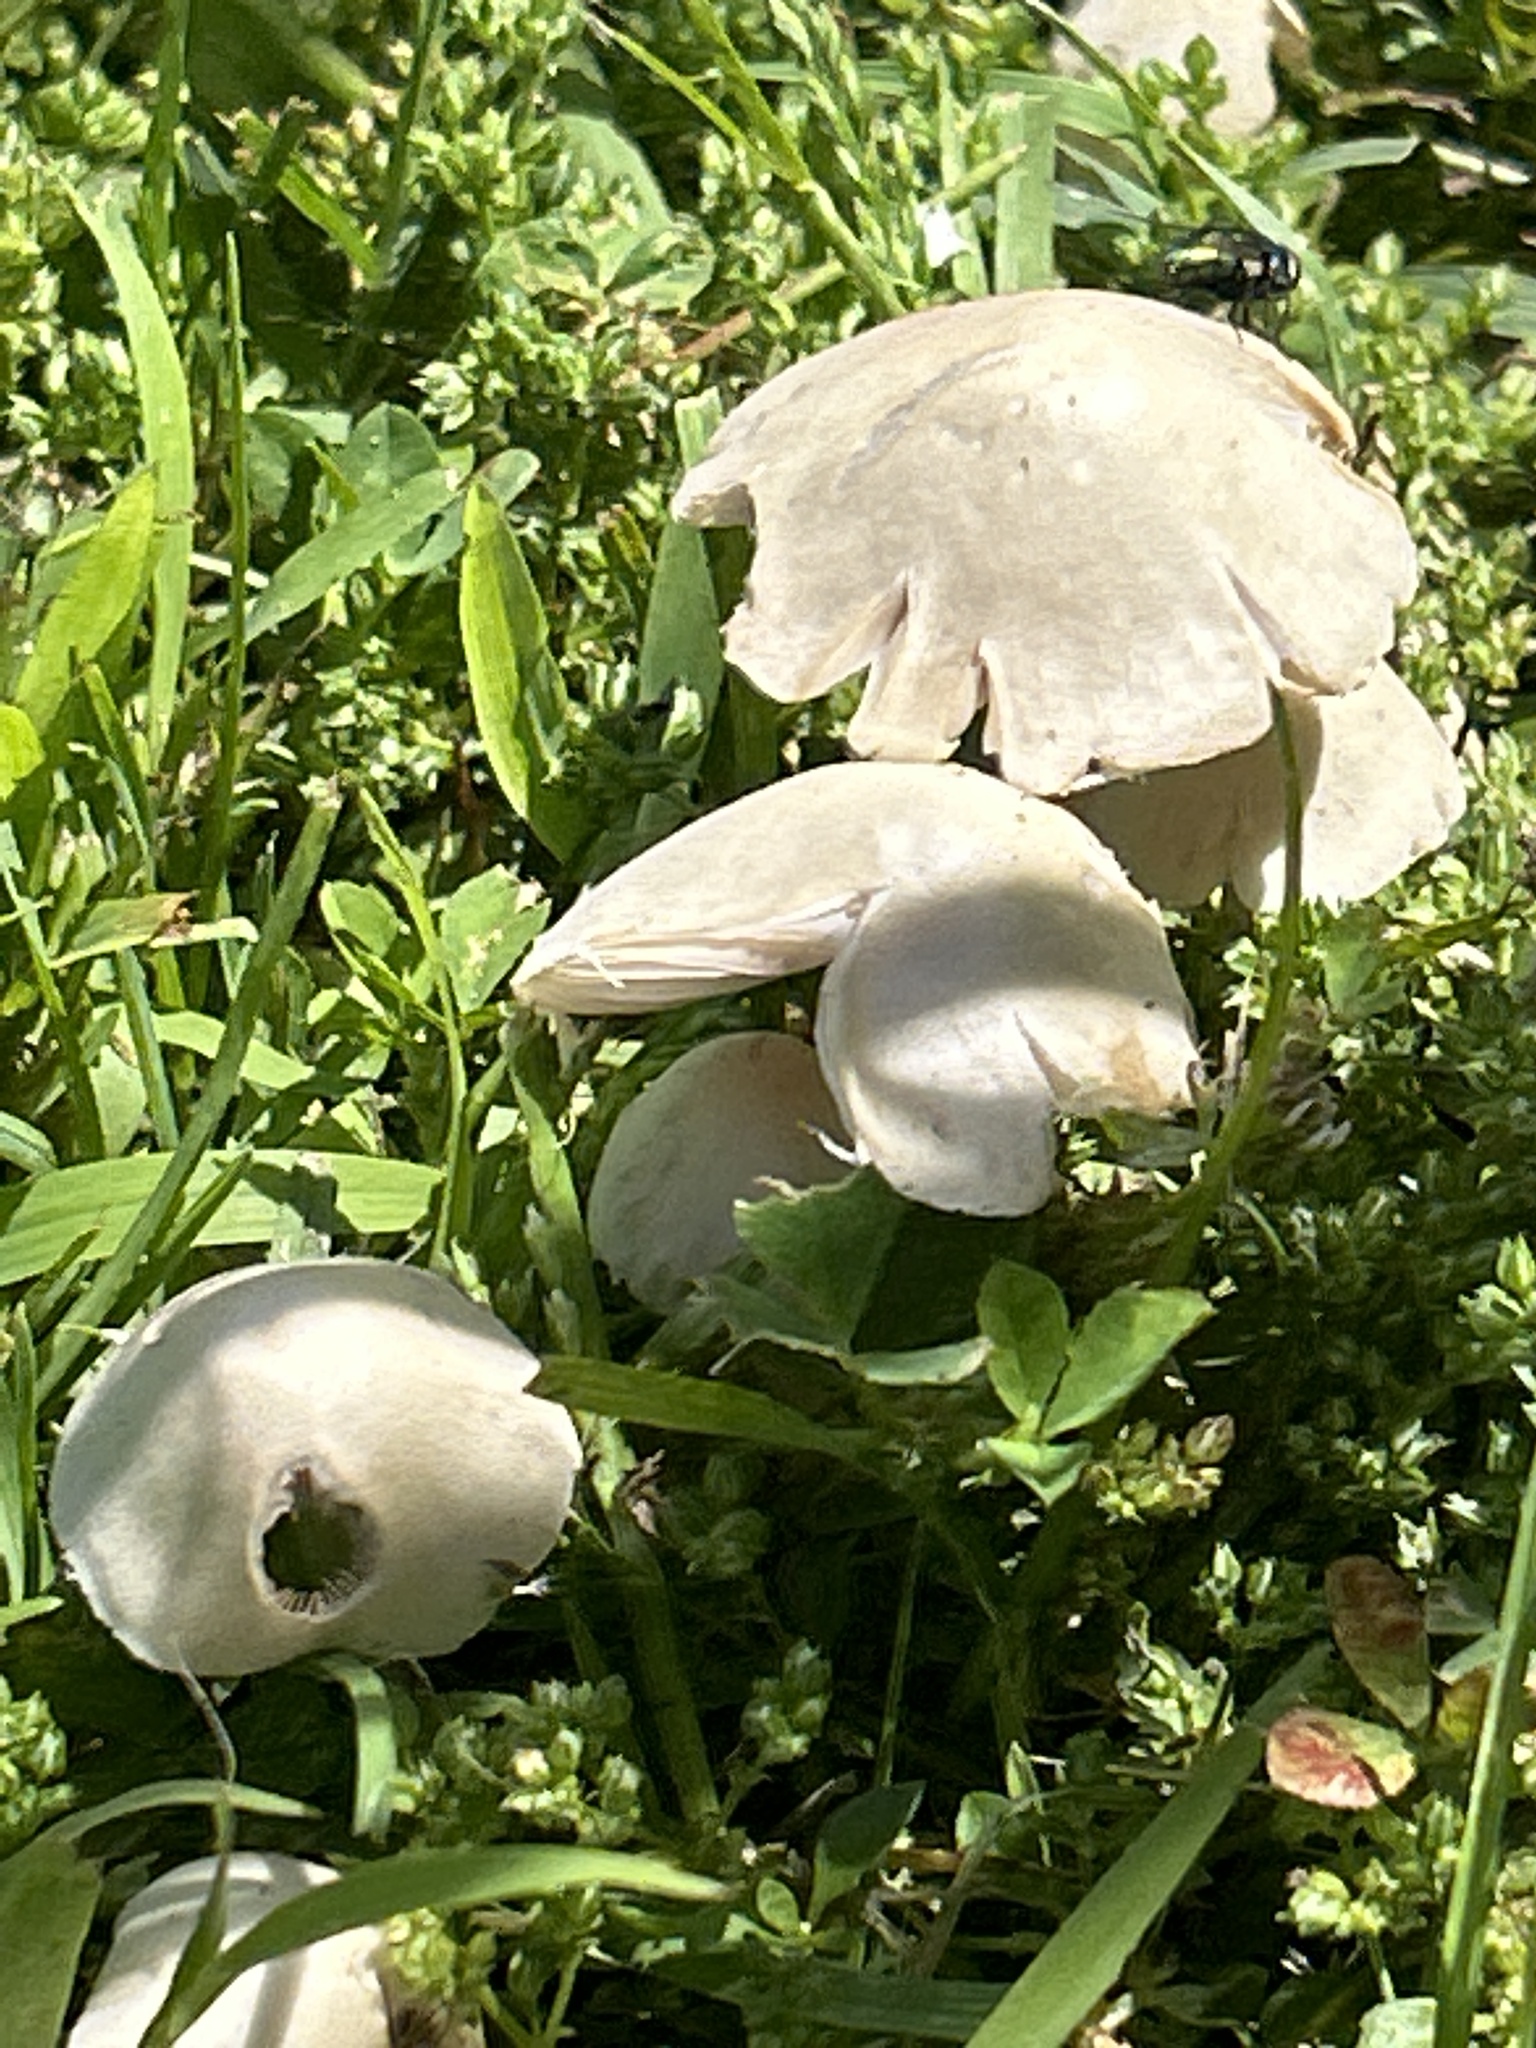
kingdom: Fungi
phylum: Basidiomycota
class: Agaricomycetes
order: Agaricales
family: Psathyrellaceae
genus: Candolleomyces
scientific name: Candolleomyces candolleanus
